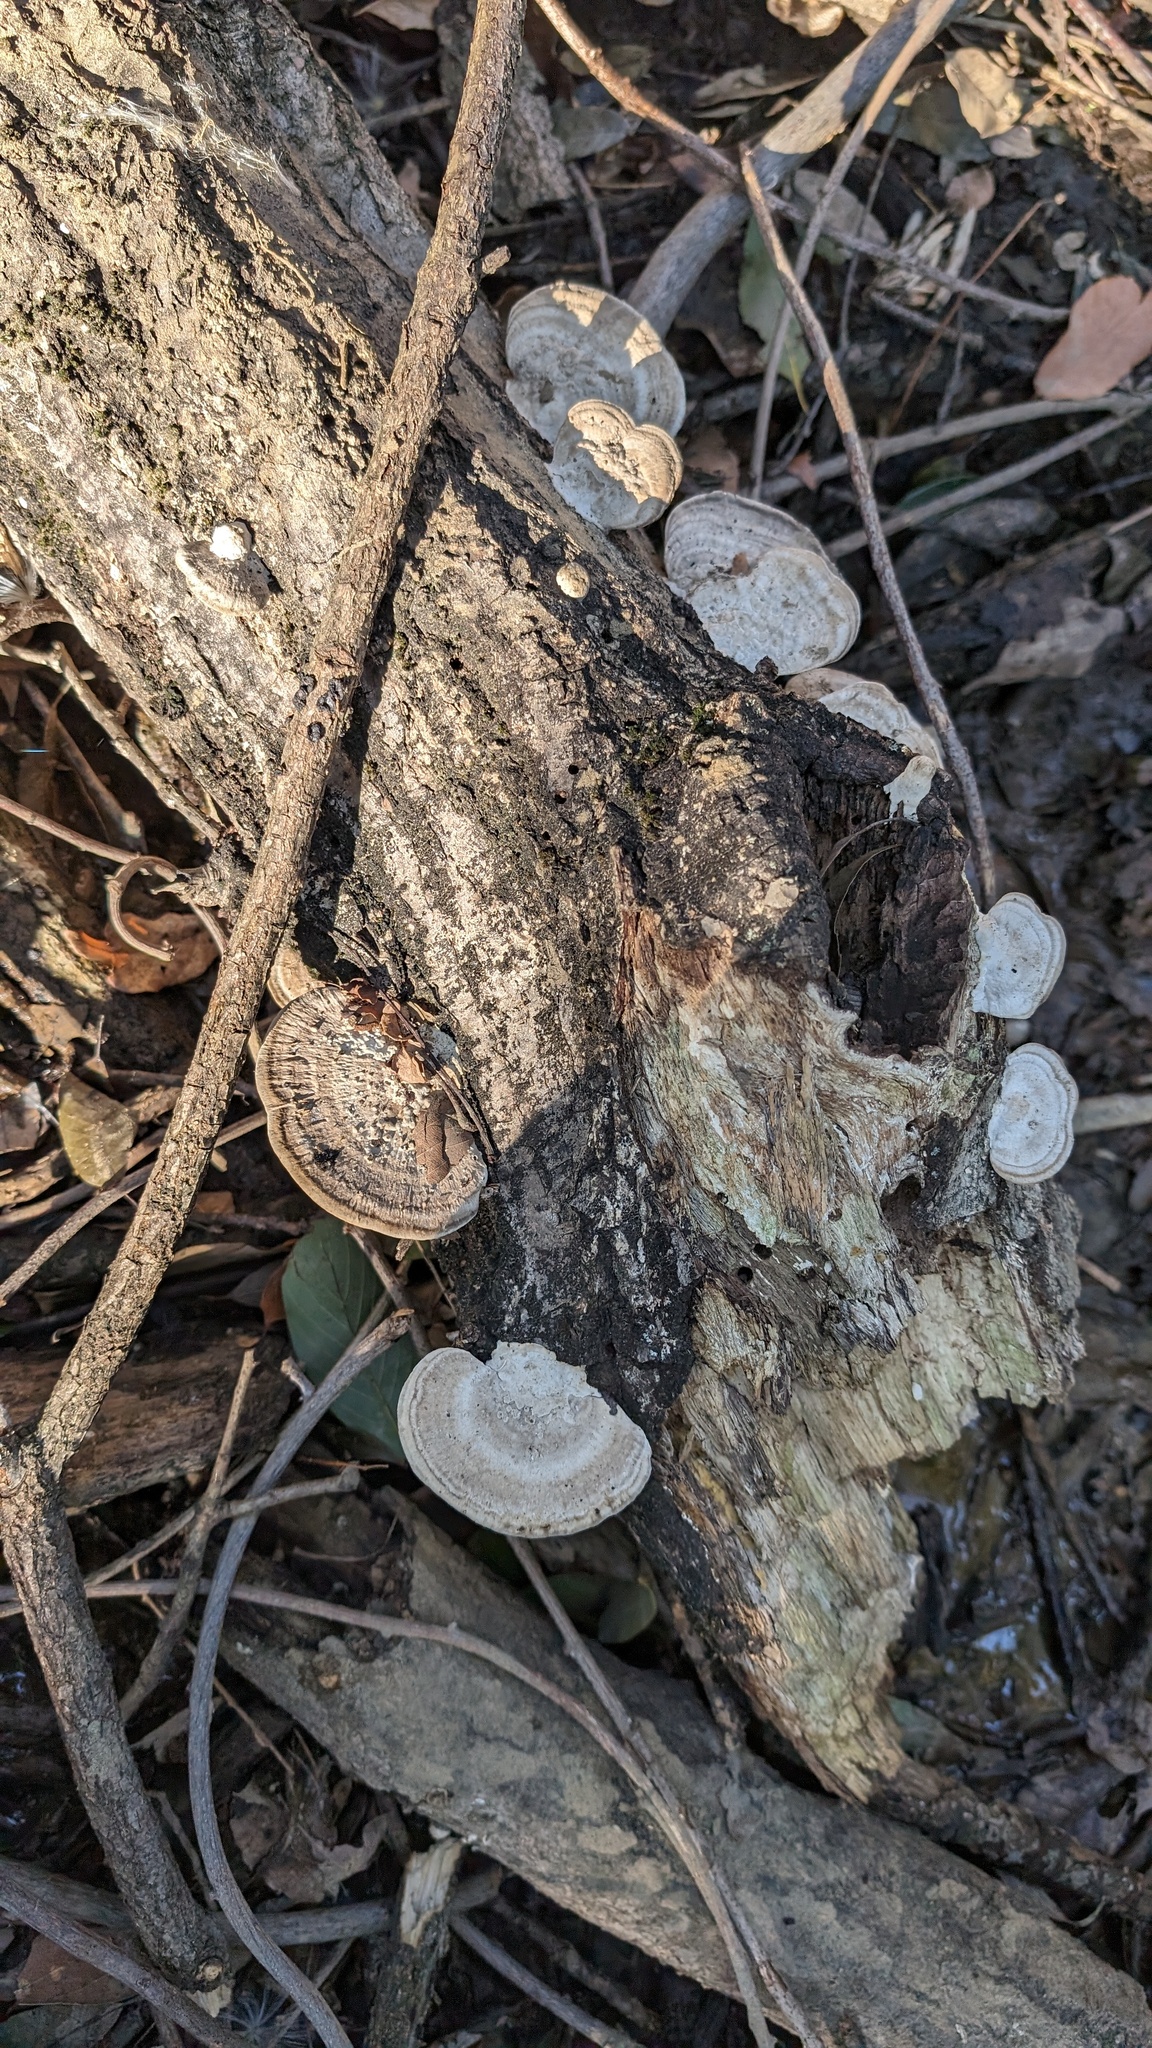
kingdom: Fungi
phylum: Basidiomycota
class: Agaricomycetes
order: Polyporales
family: Polyporaceae
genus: Trametes
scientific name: Trametes orientalis
